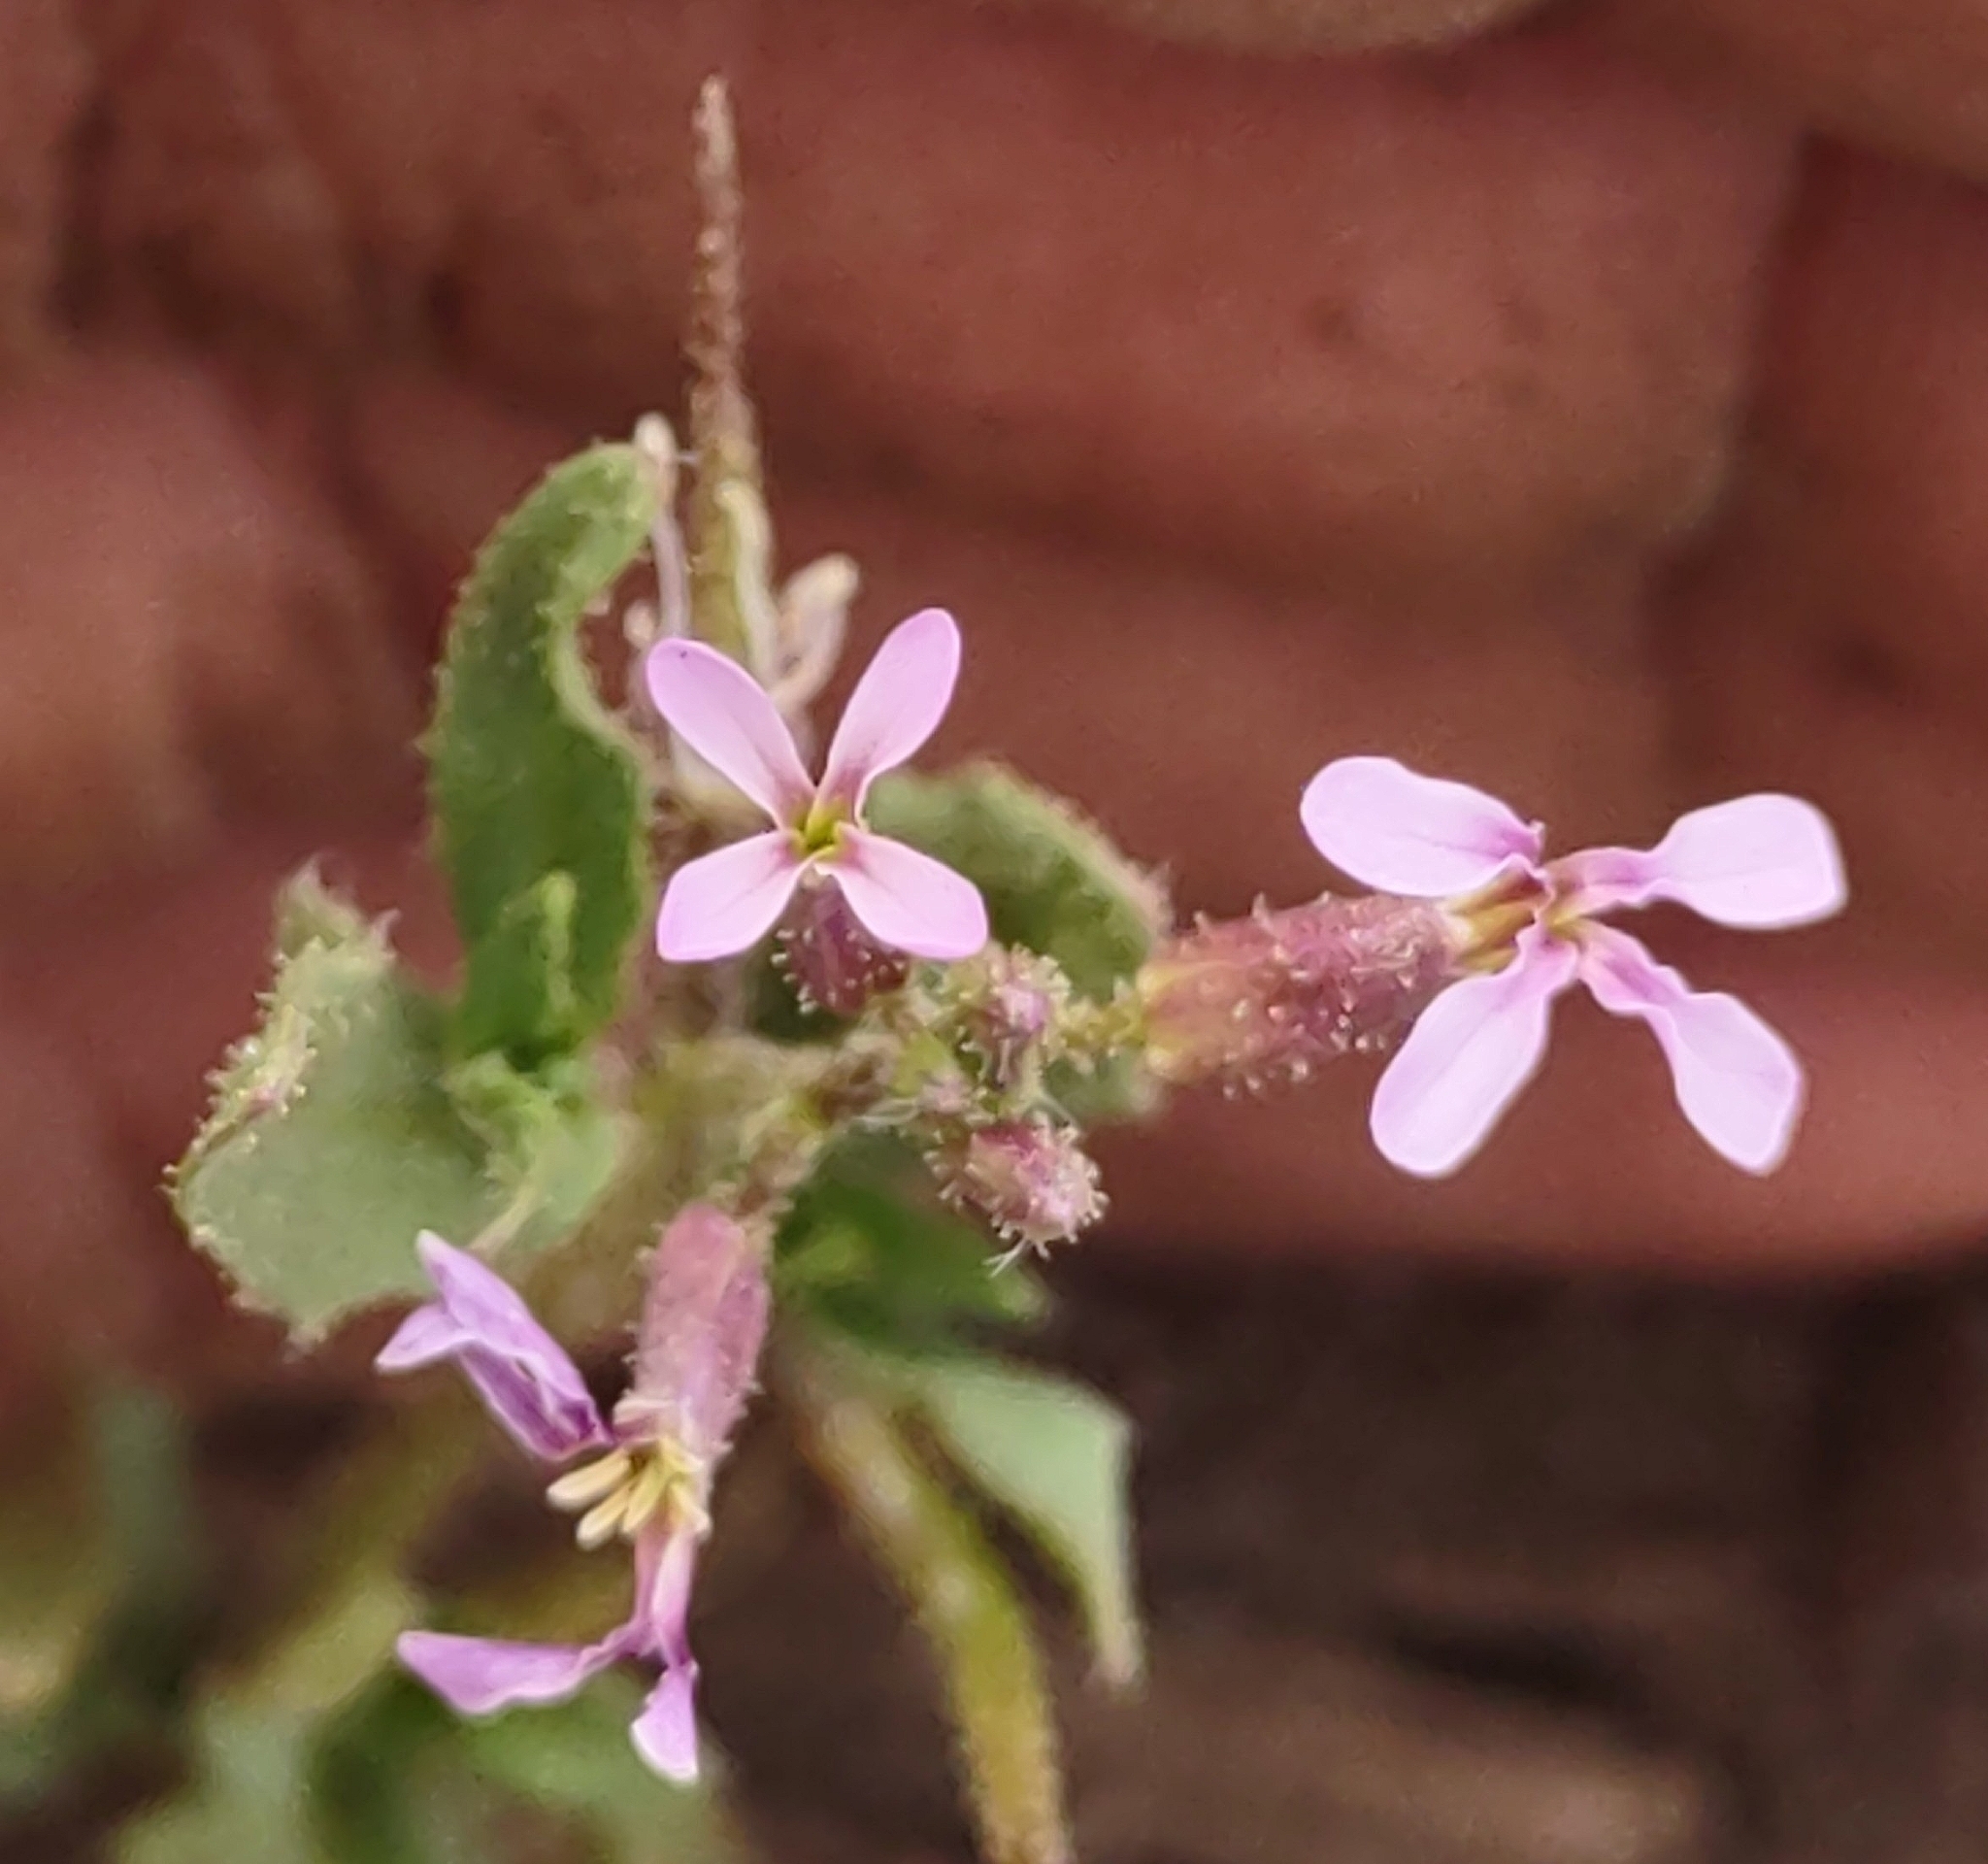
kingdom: Plantae
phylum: Tracheophyta
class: Magnoliopsida
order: Brassicales
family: Brassicaceae
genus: Chorispora
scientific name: Chorispora tenella
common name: Crossflower
